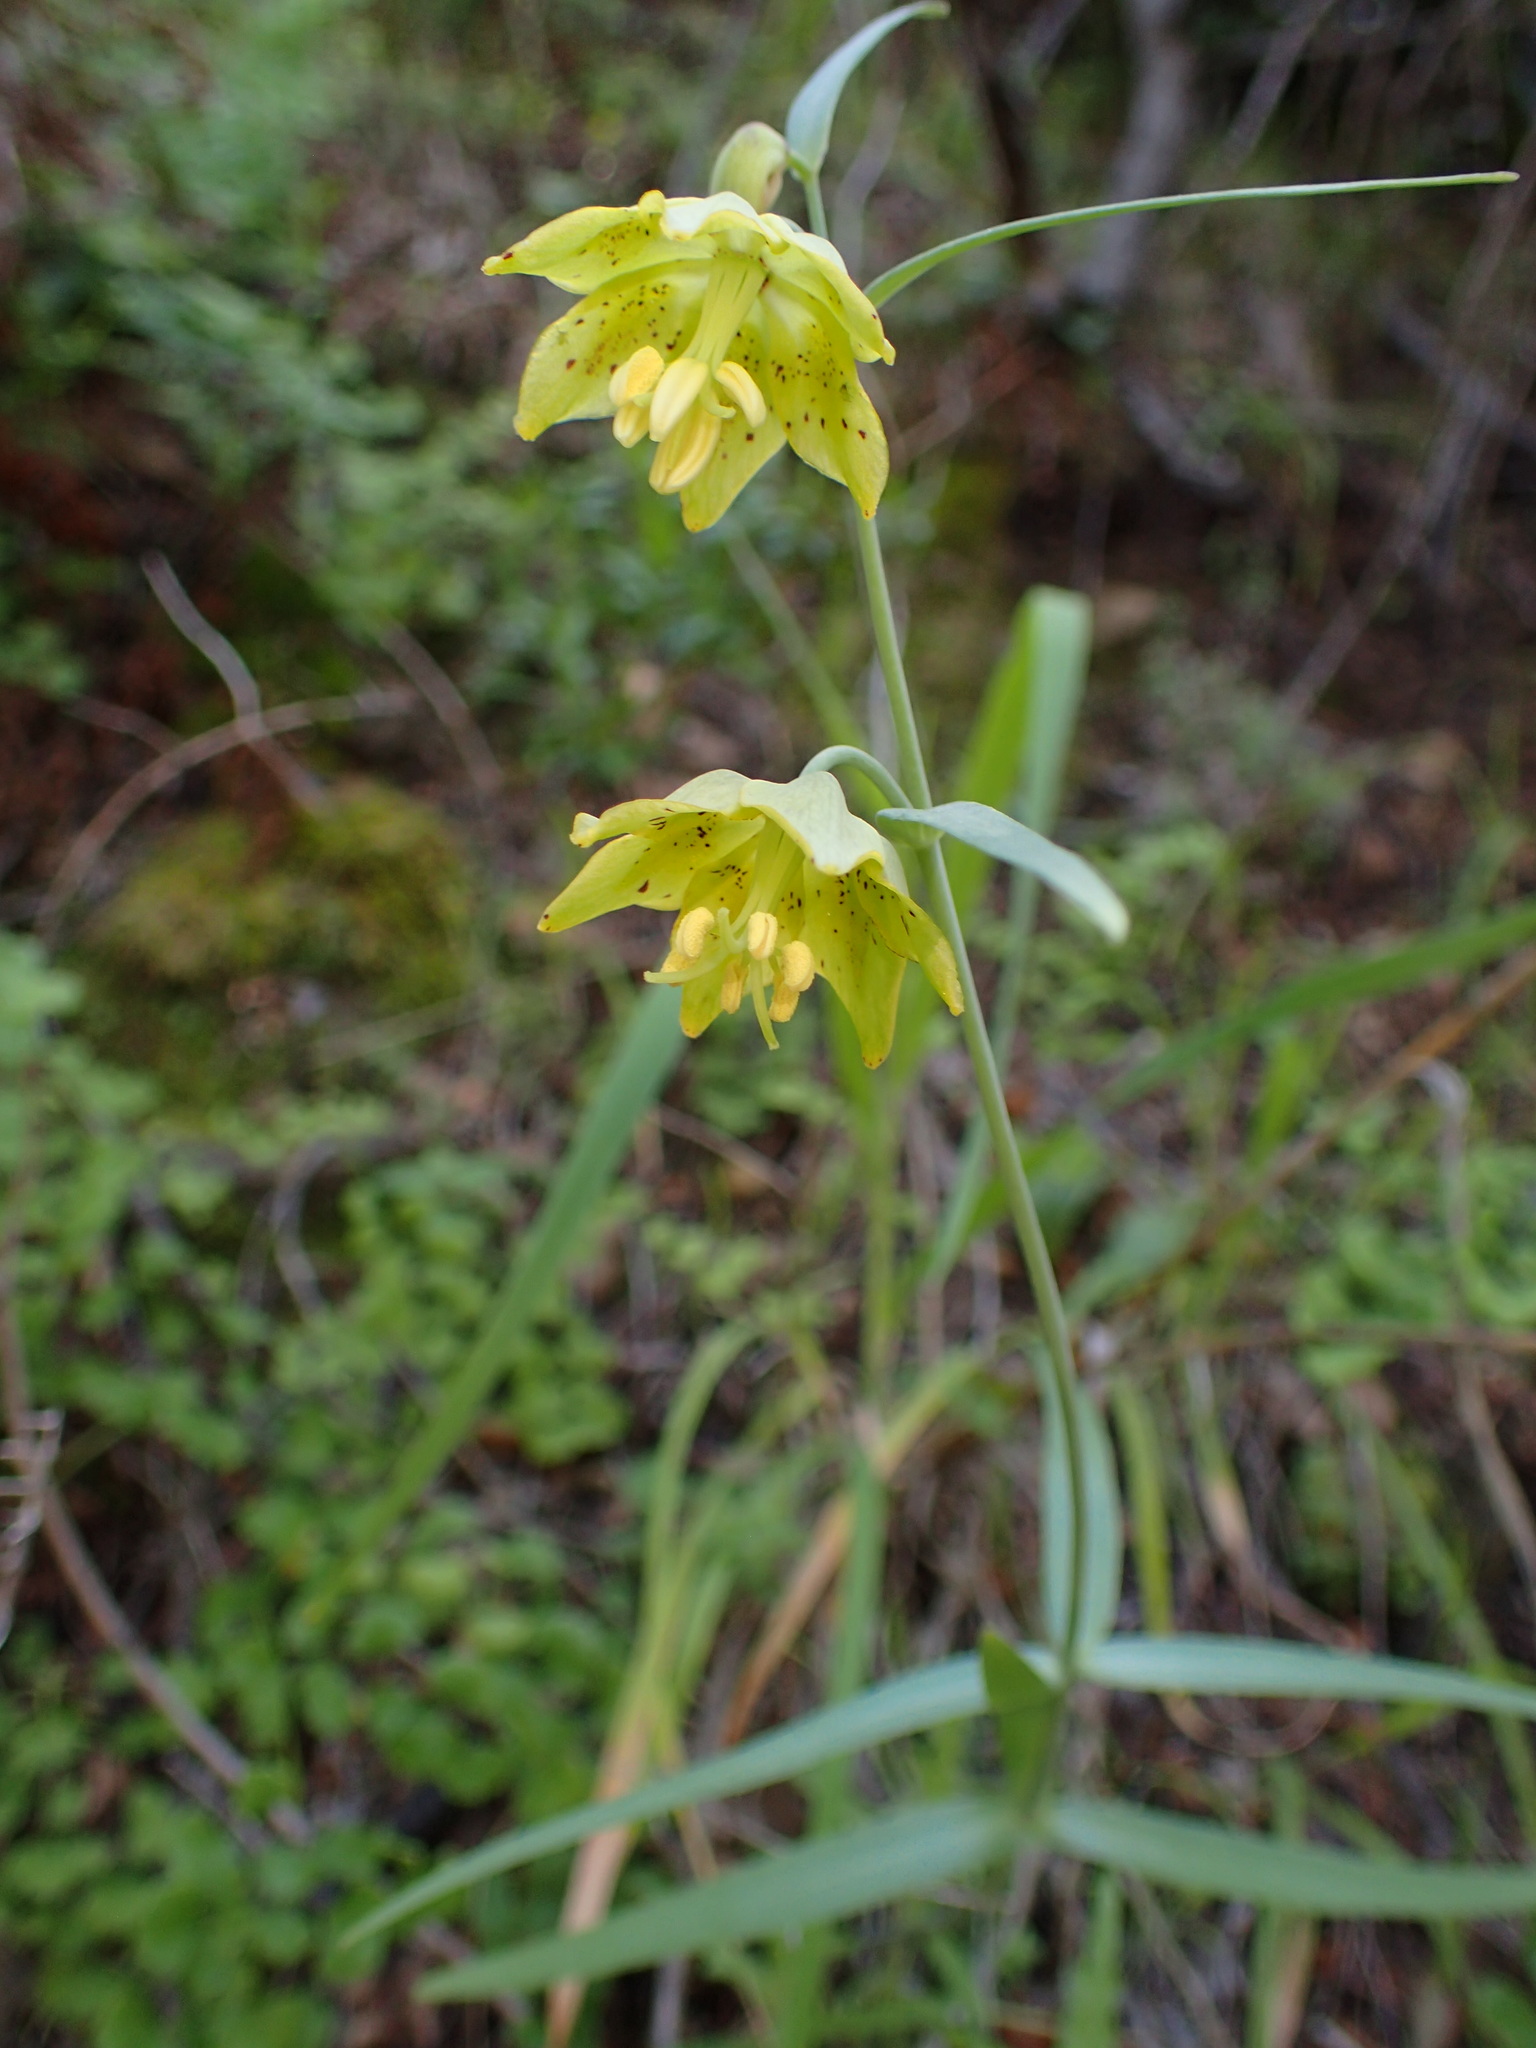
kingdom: Plantae
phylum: Tracheophyta
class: Liliopsida
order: Liliales
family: Liliaceae
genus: Fritillaria
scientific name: Fritillaria ojaiensis
